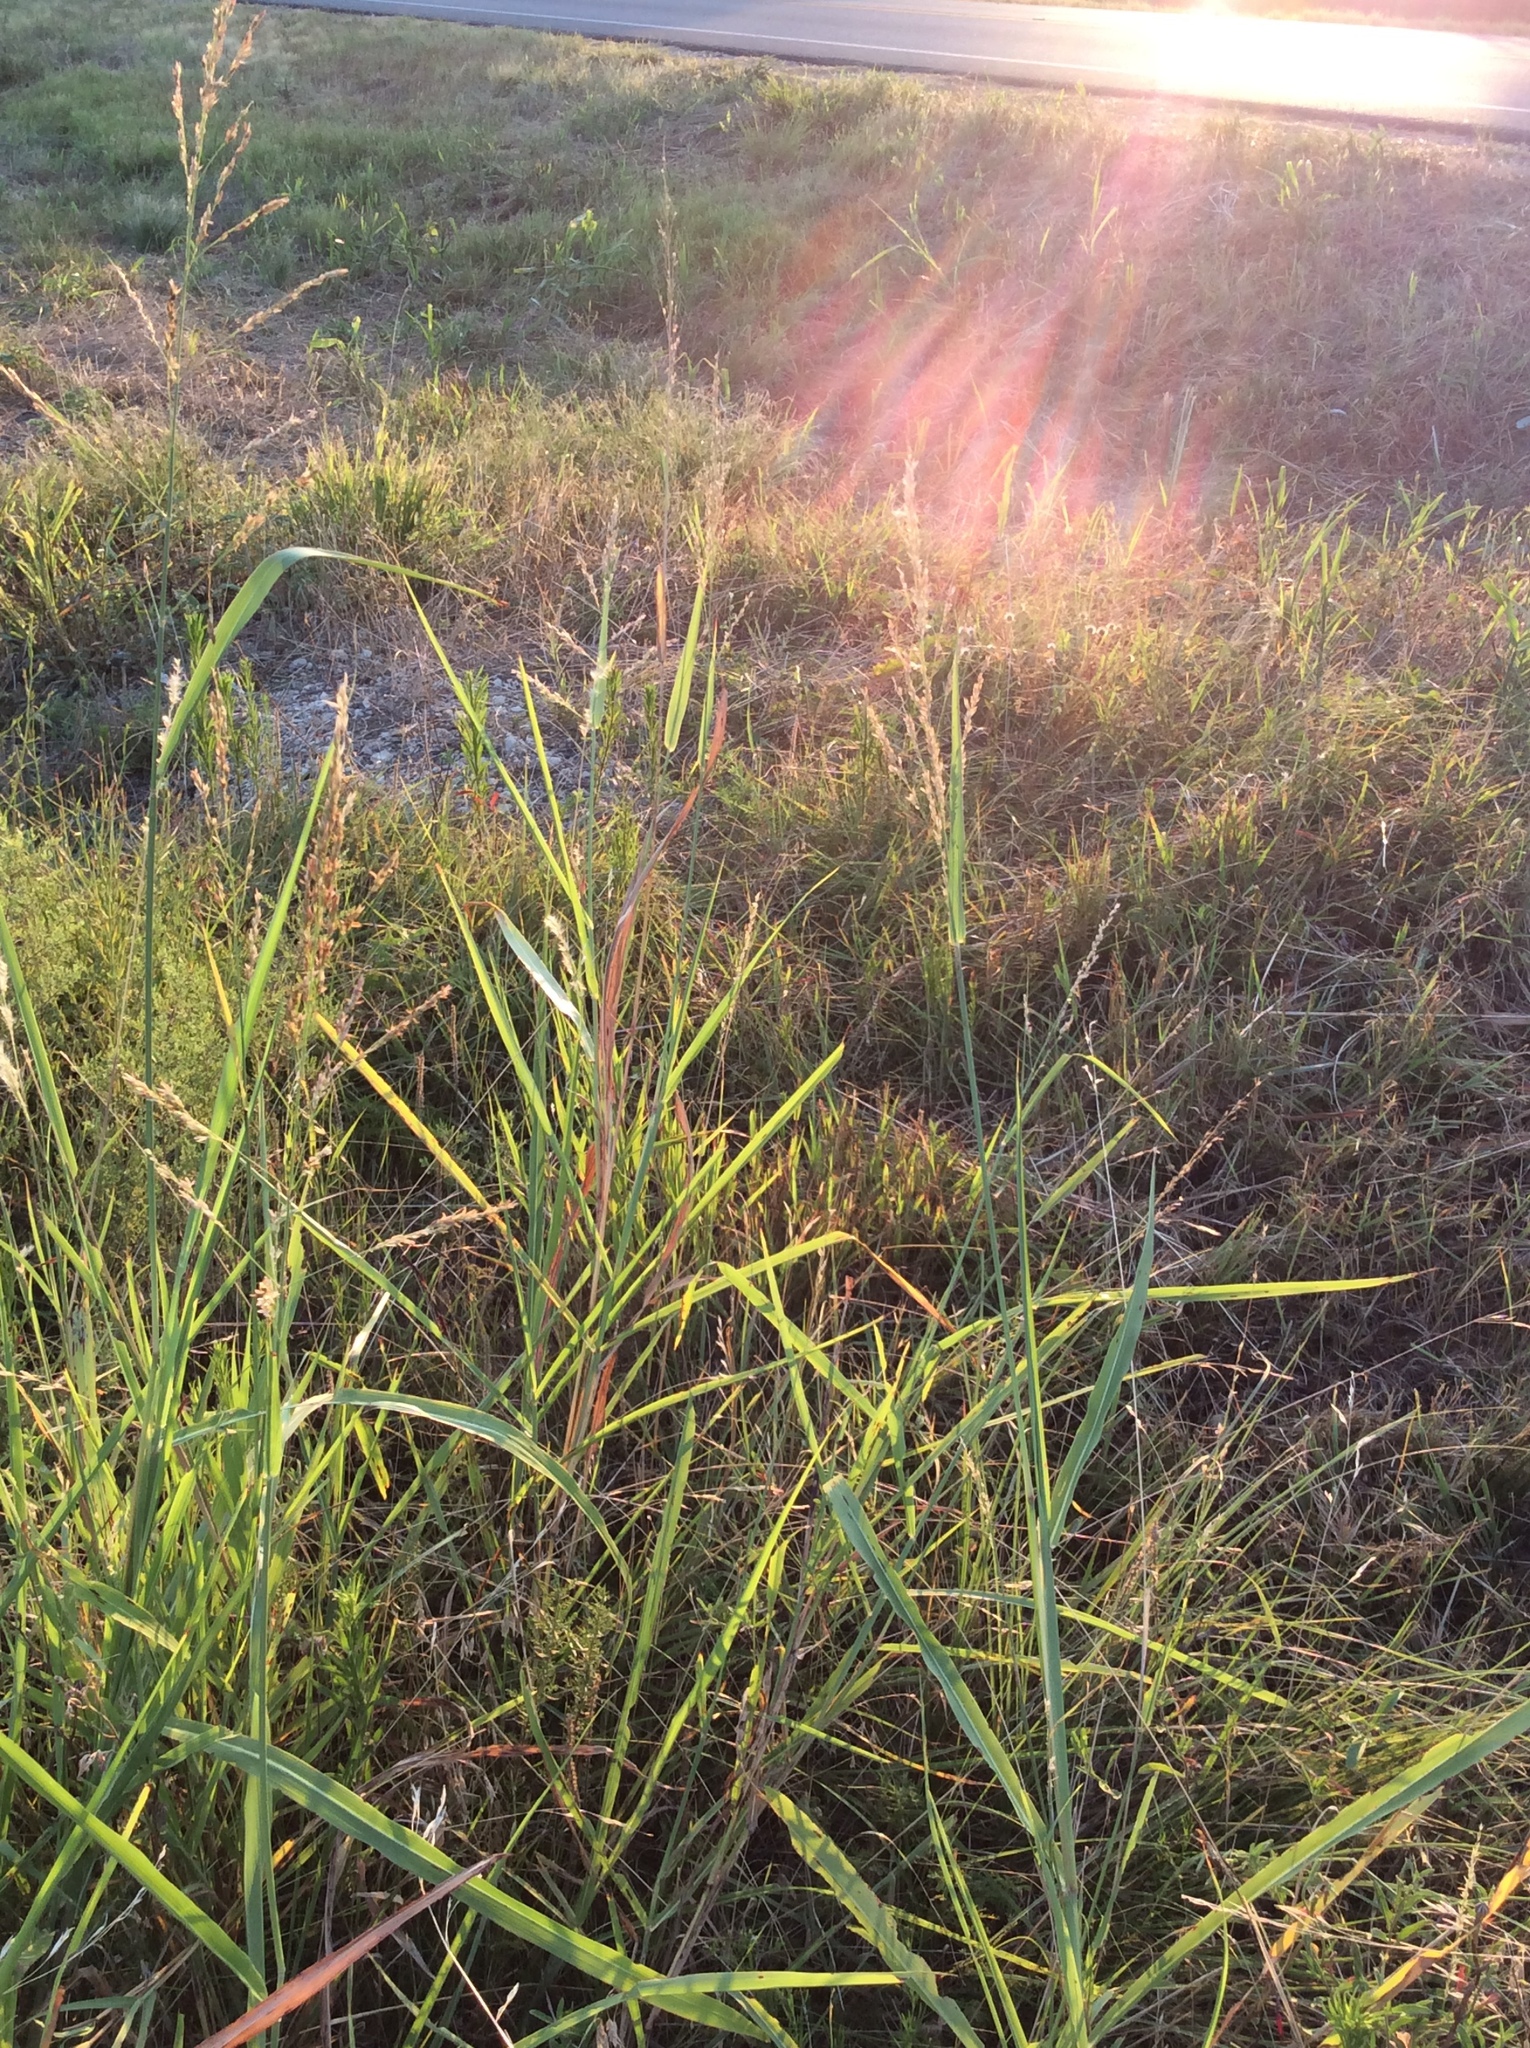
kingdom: Plantae
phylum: Tracheophyta
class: Liliopsida
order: Poales
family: Poaceae
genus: Sorghum
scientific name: Sorghum halepense
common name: Johnson-grass
